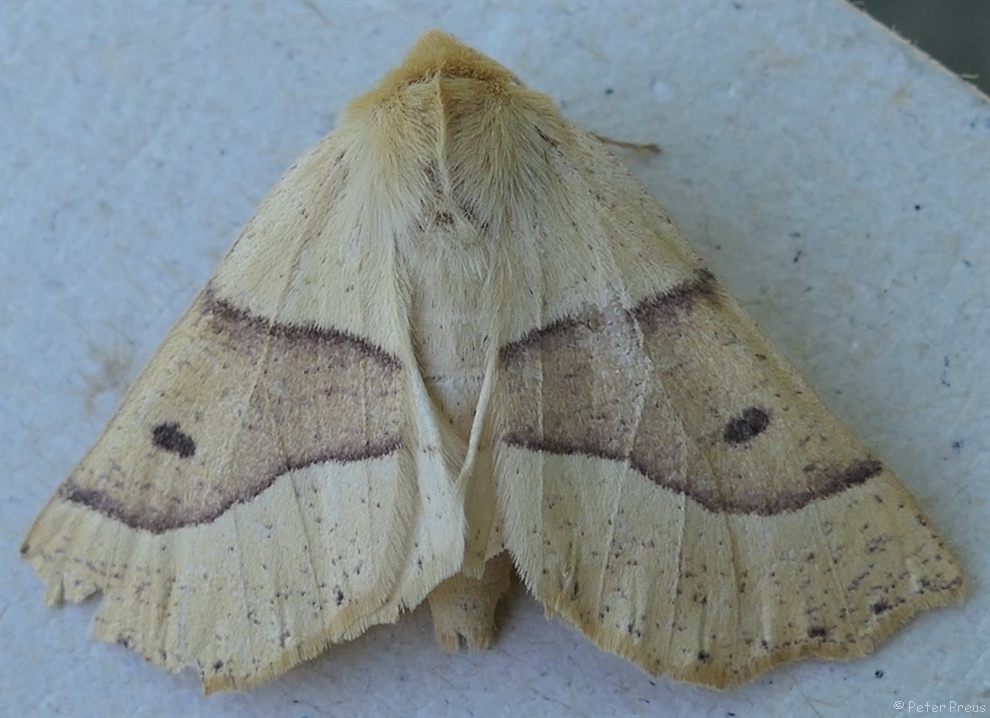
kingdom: Animalia
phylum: Arthropoda
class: Insecta
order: Lepidoptera
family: Geometridae
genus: Crocallis
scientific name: Crocallis elinguaria
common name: Scalloped oak
